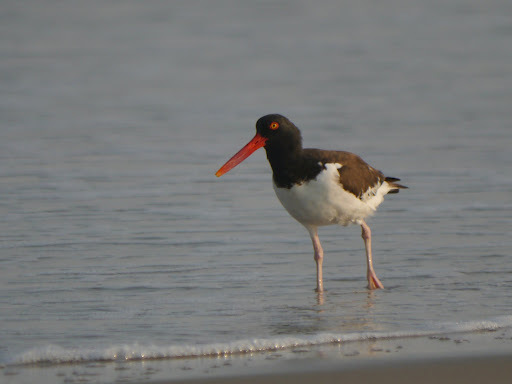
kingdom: Animalia
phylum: Chordata
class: Aves
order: Charadriiformes
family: Haematopodidae
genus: Haematopus
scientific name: Haematopus palliatus
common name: American oystercatcher
